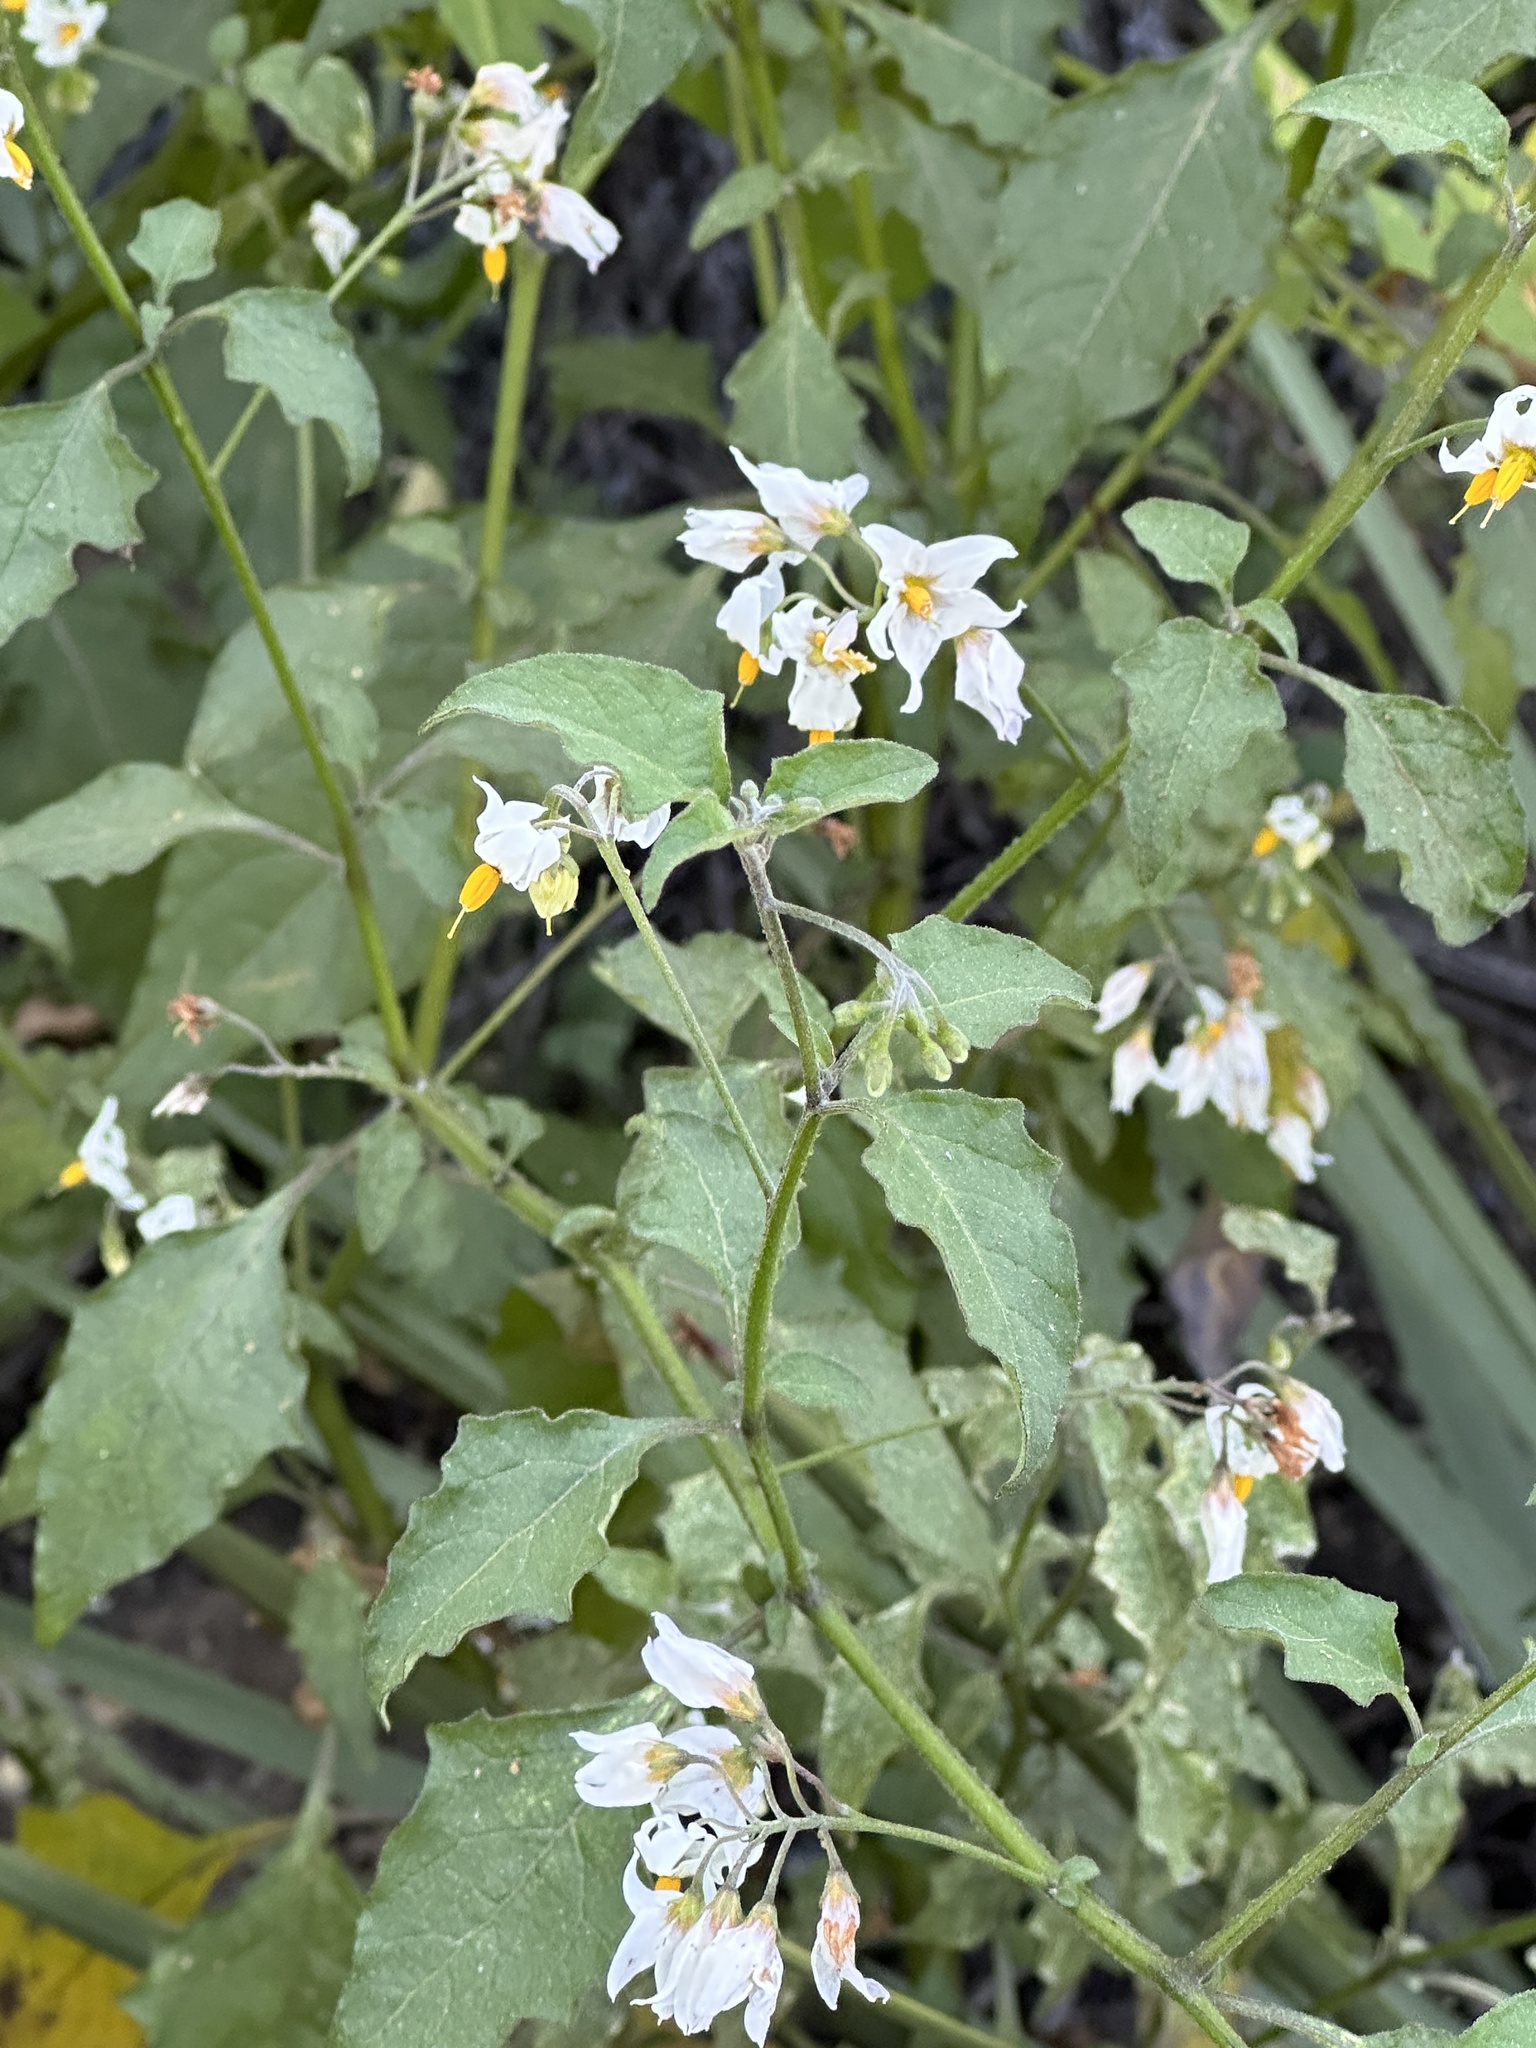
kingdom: Plantae
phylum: Tracheophyta
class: Magnoliopsida
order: Solanales
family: Solanaceae
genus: Solanum
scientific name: Solanum douglasii
